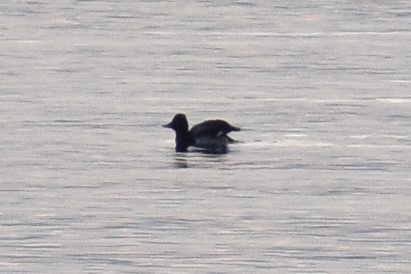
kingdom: Animalia
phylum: Chordata
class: Aves
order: Anseriformes
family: Anatidae
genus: Aythya
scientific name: Aythya affinis
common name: Lesser scaup
